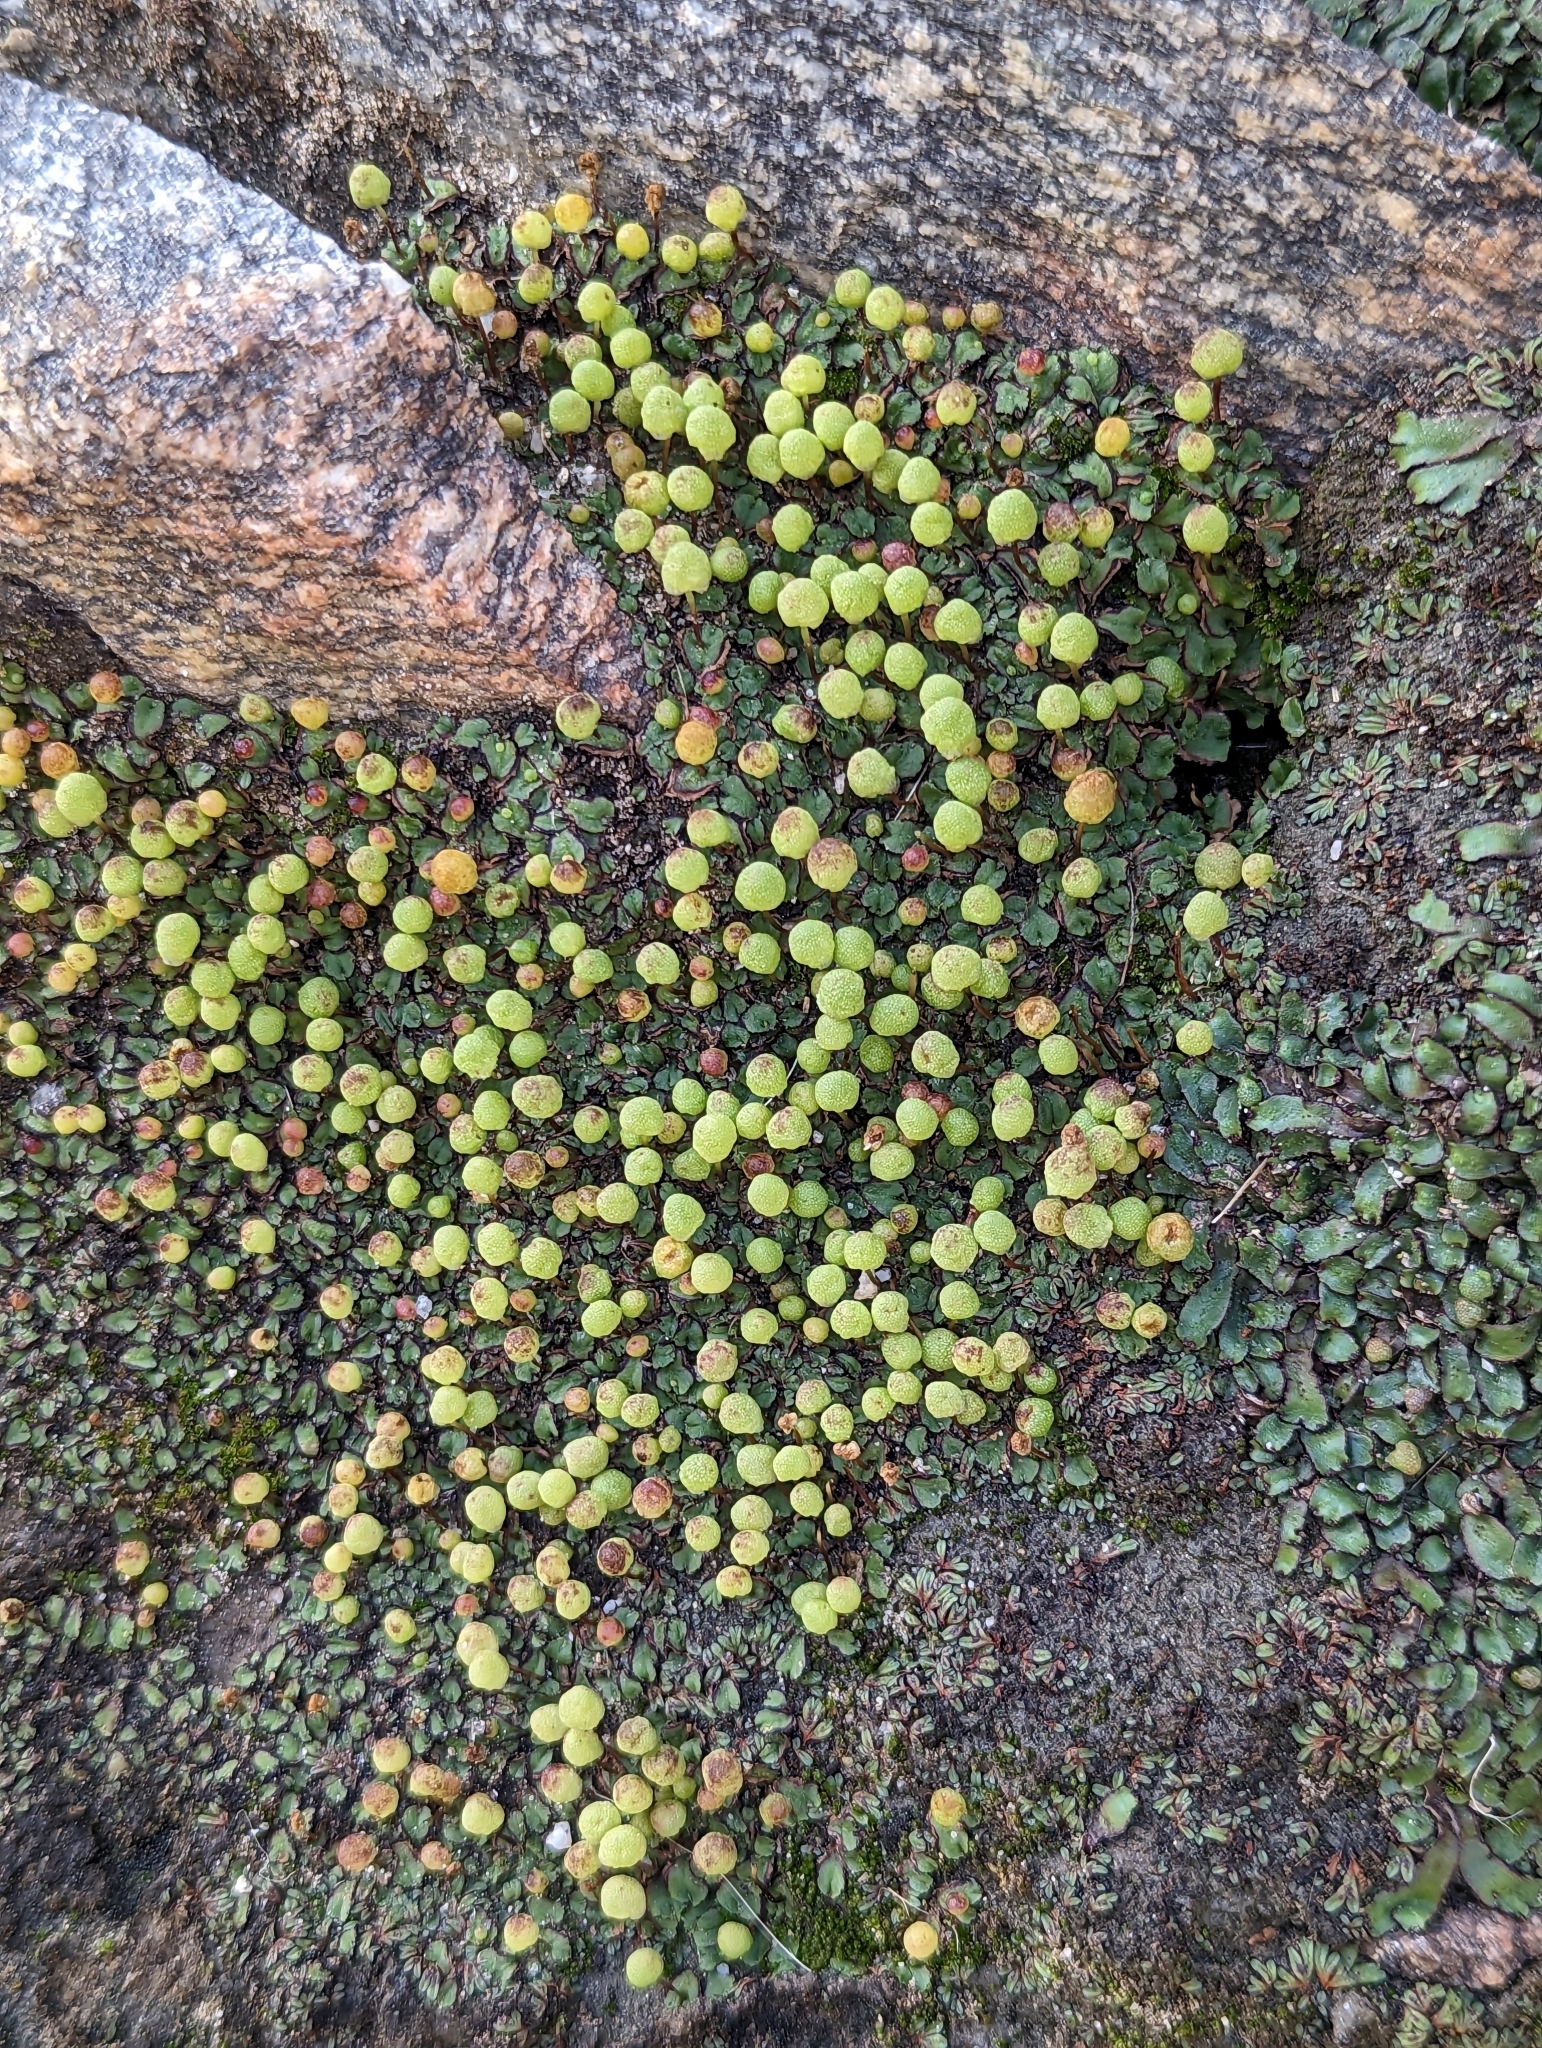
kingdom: Plantae
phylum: Marchantiophyta
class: Marchantiopsida
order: Marchantiales
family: Aytoniaceae
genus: Asterella
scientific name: Asterella palmeri
